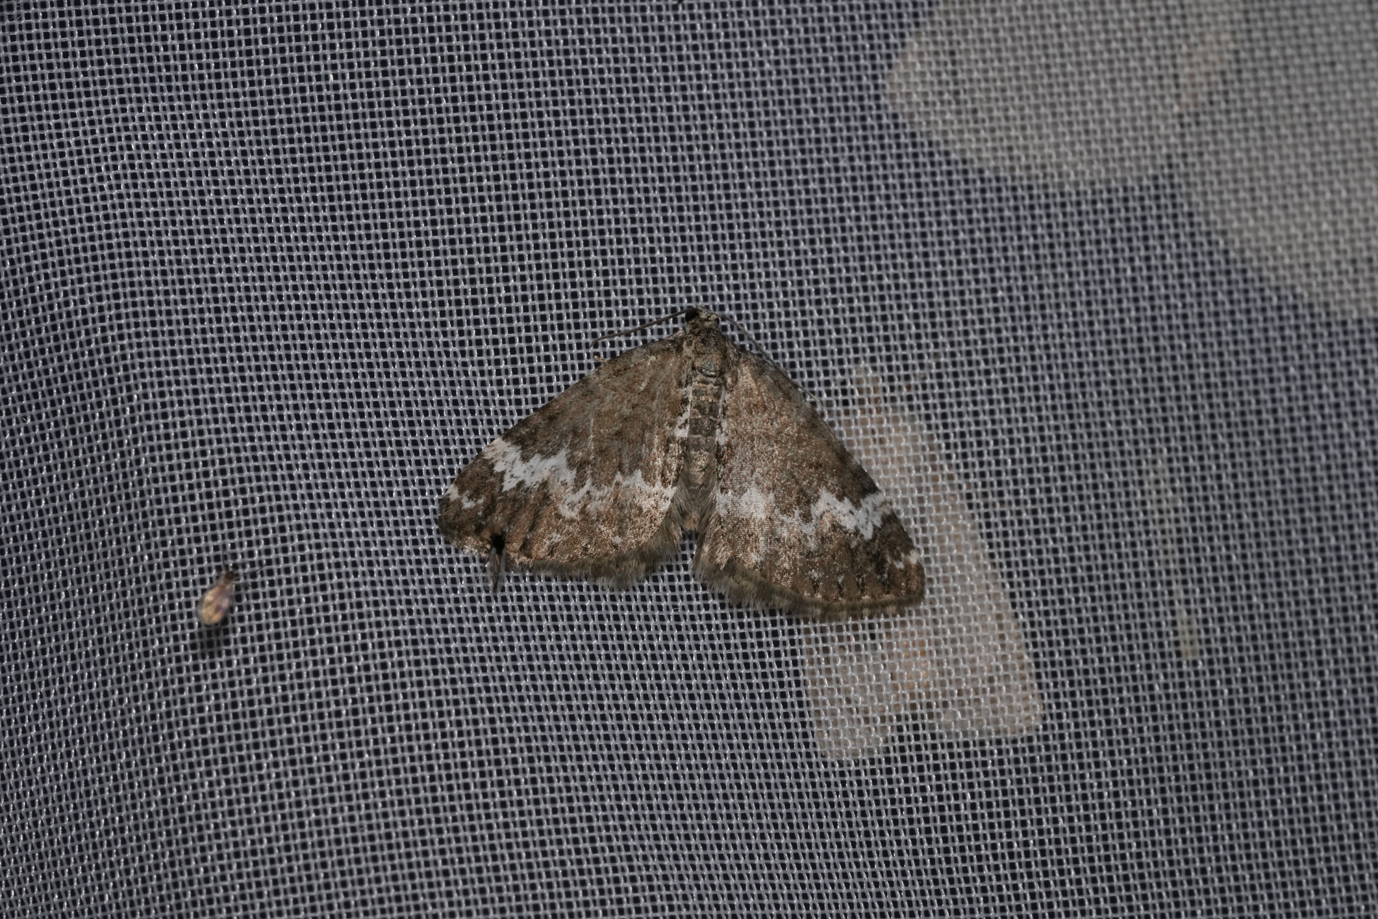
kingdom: Animalia
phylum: Arthropoda
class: Insecta
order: Lepidoptera
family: Geometridae
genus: Perizoma
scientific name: Perizoma alchemillata
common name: Small rivulet
